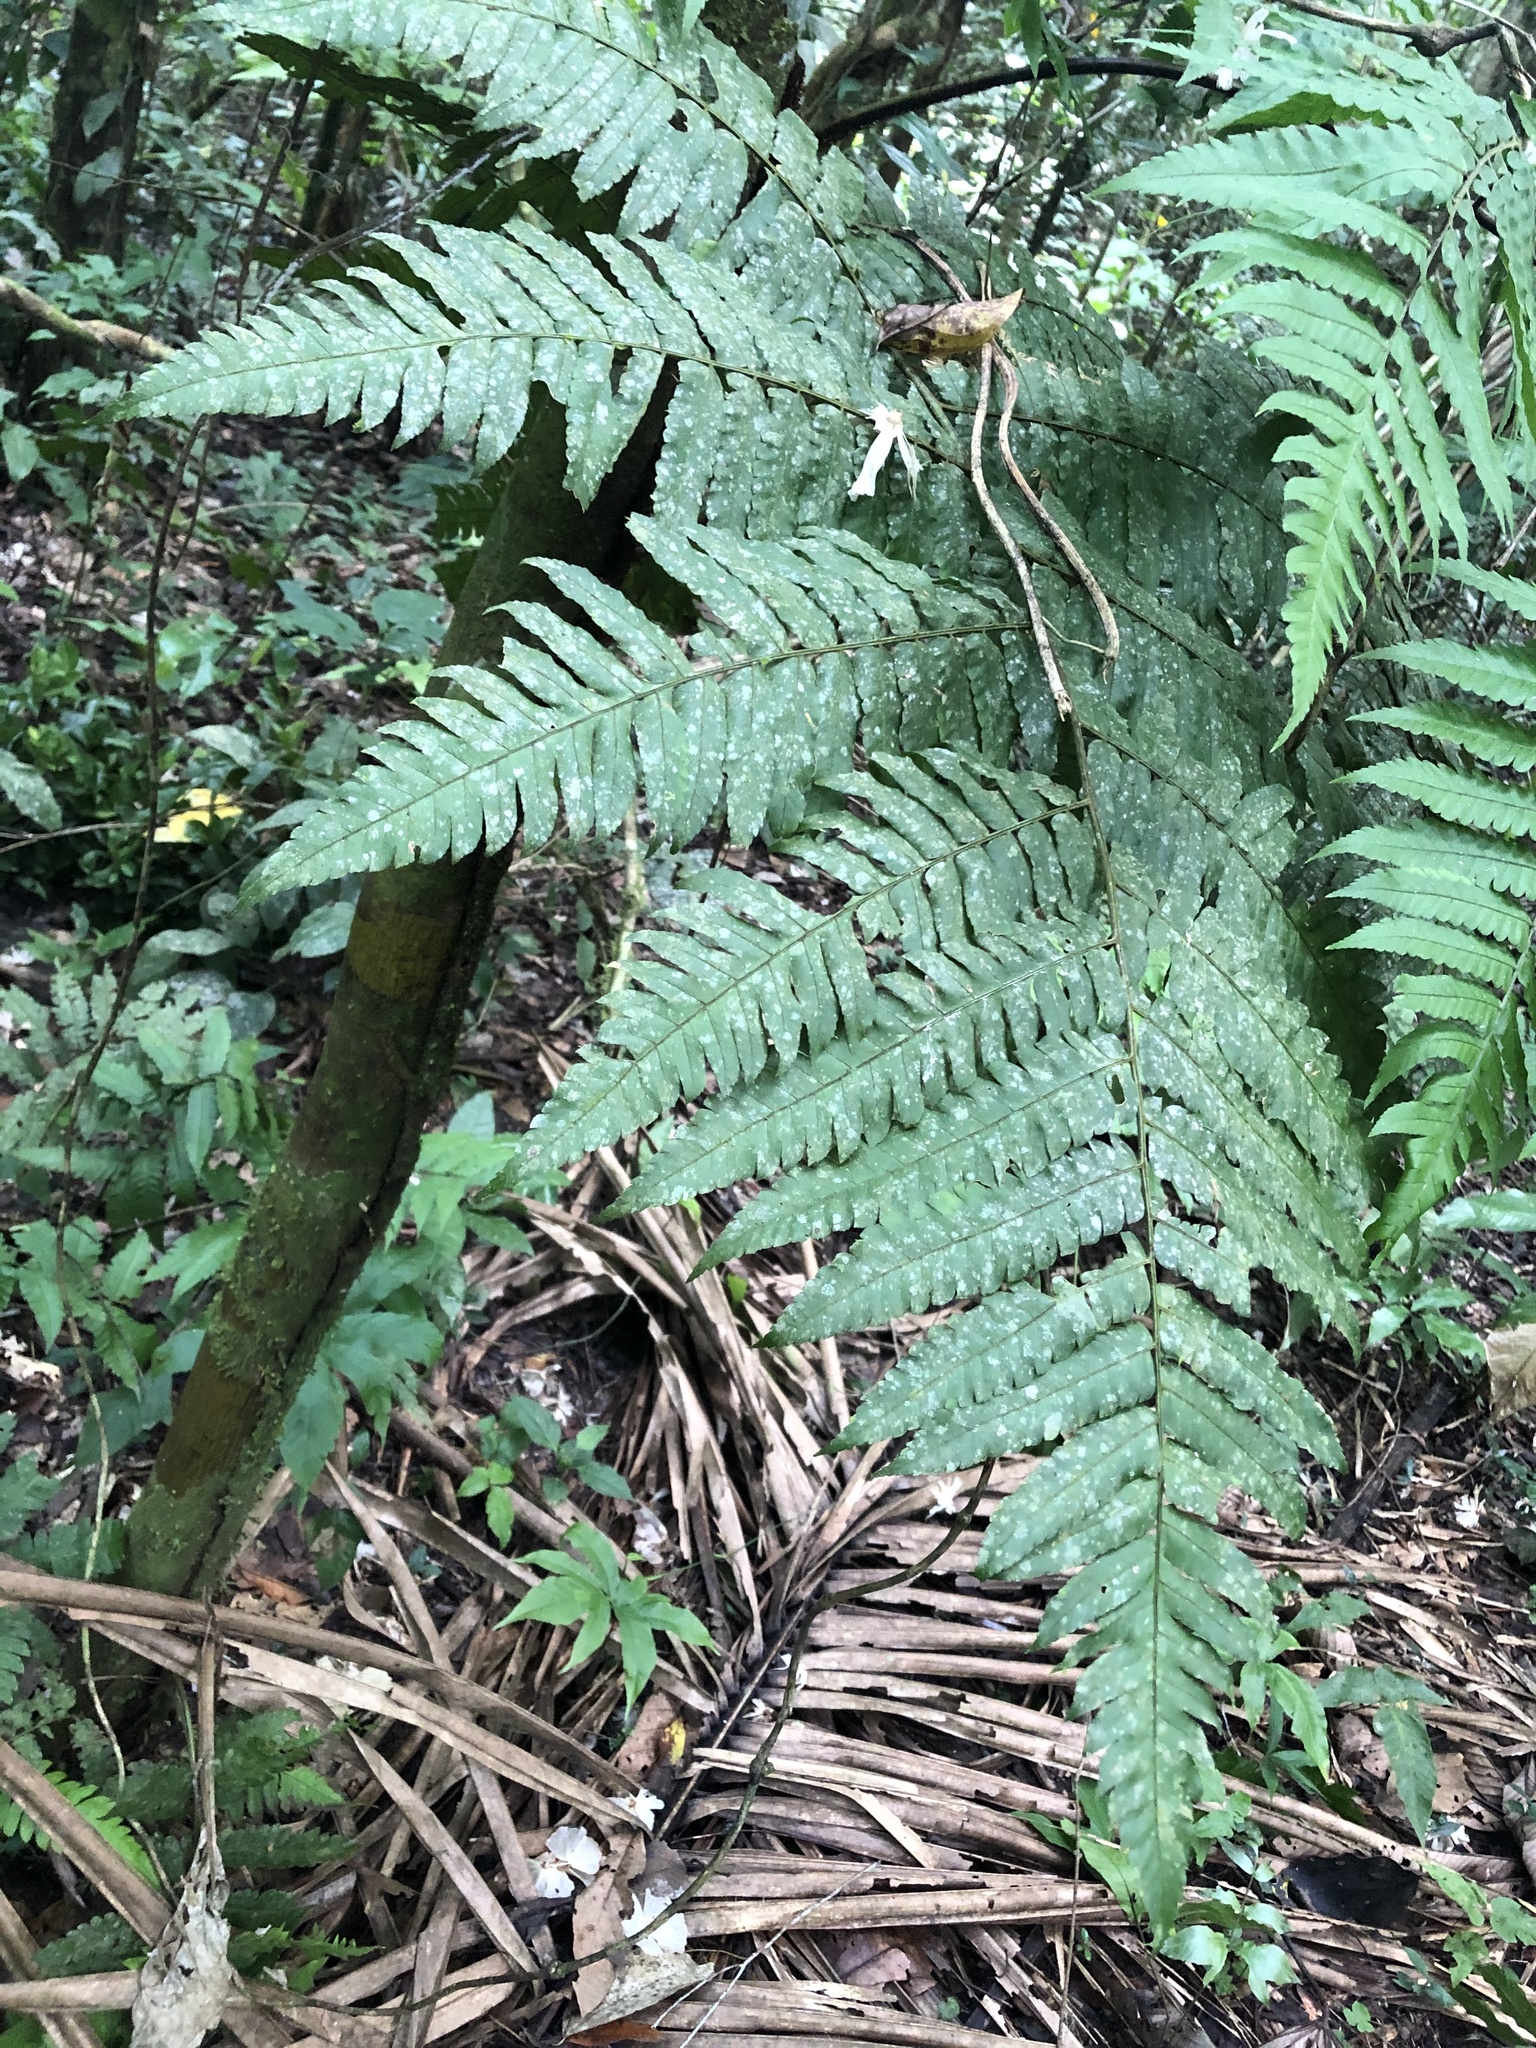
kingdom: Plantae
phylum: Tracheophyta
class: Polypodiopsida
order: Polypodiales
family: Dryopteridaceae
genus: Polybotrya
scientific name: Polybotrya caudata
